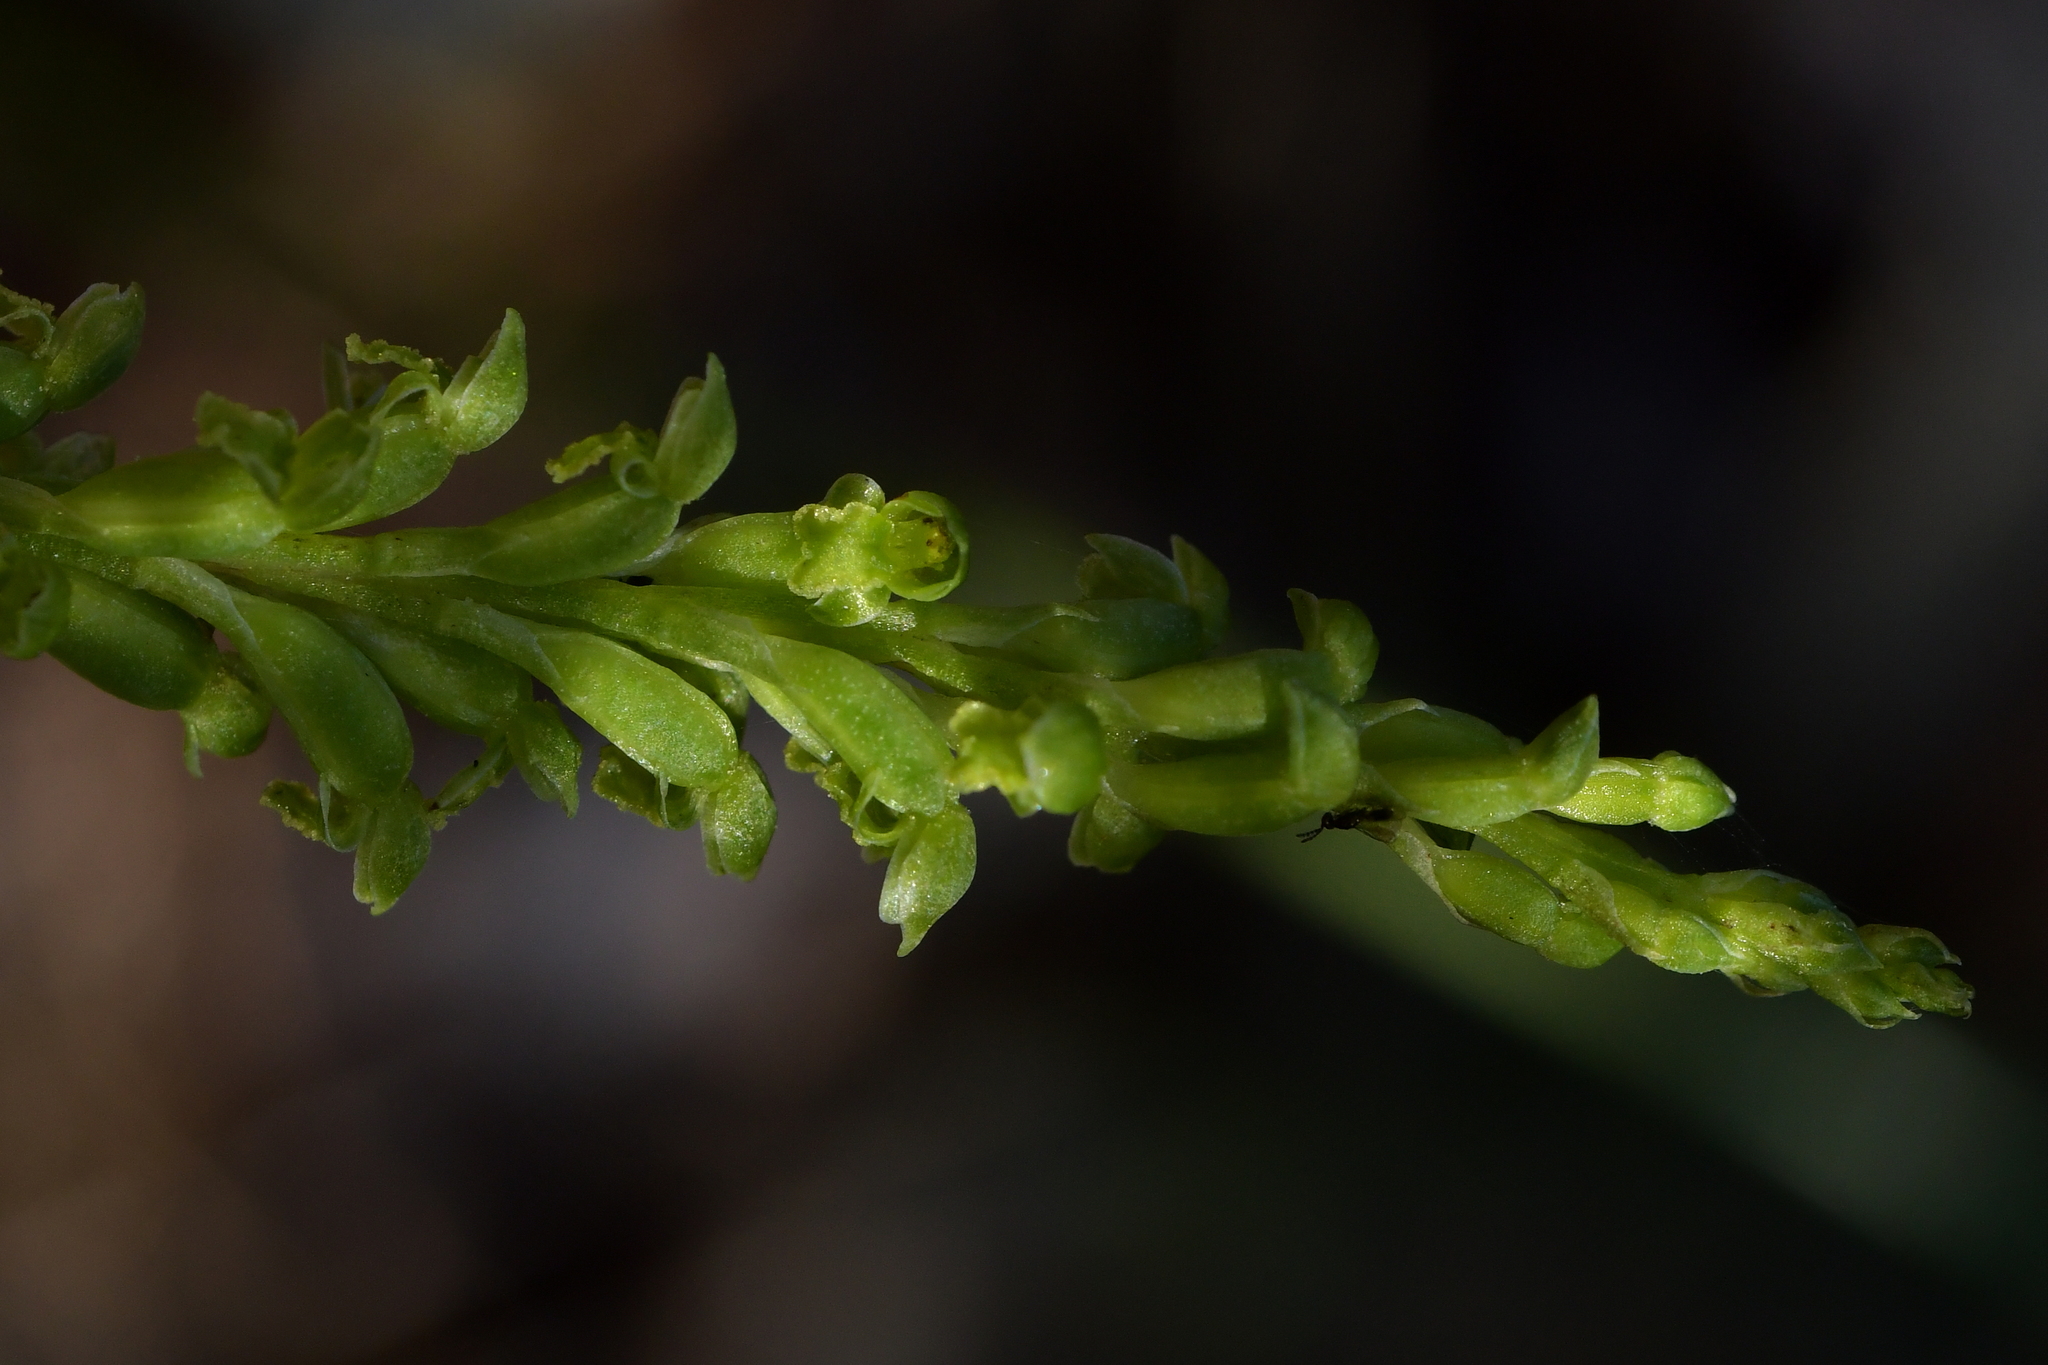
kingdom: Plantae
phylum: Tracheophyta
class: Liliopsida
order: Asparagales
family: Orchidaceae
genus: Microtis
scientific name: Microtis unifolia
